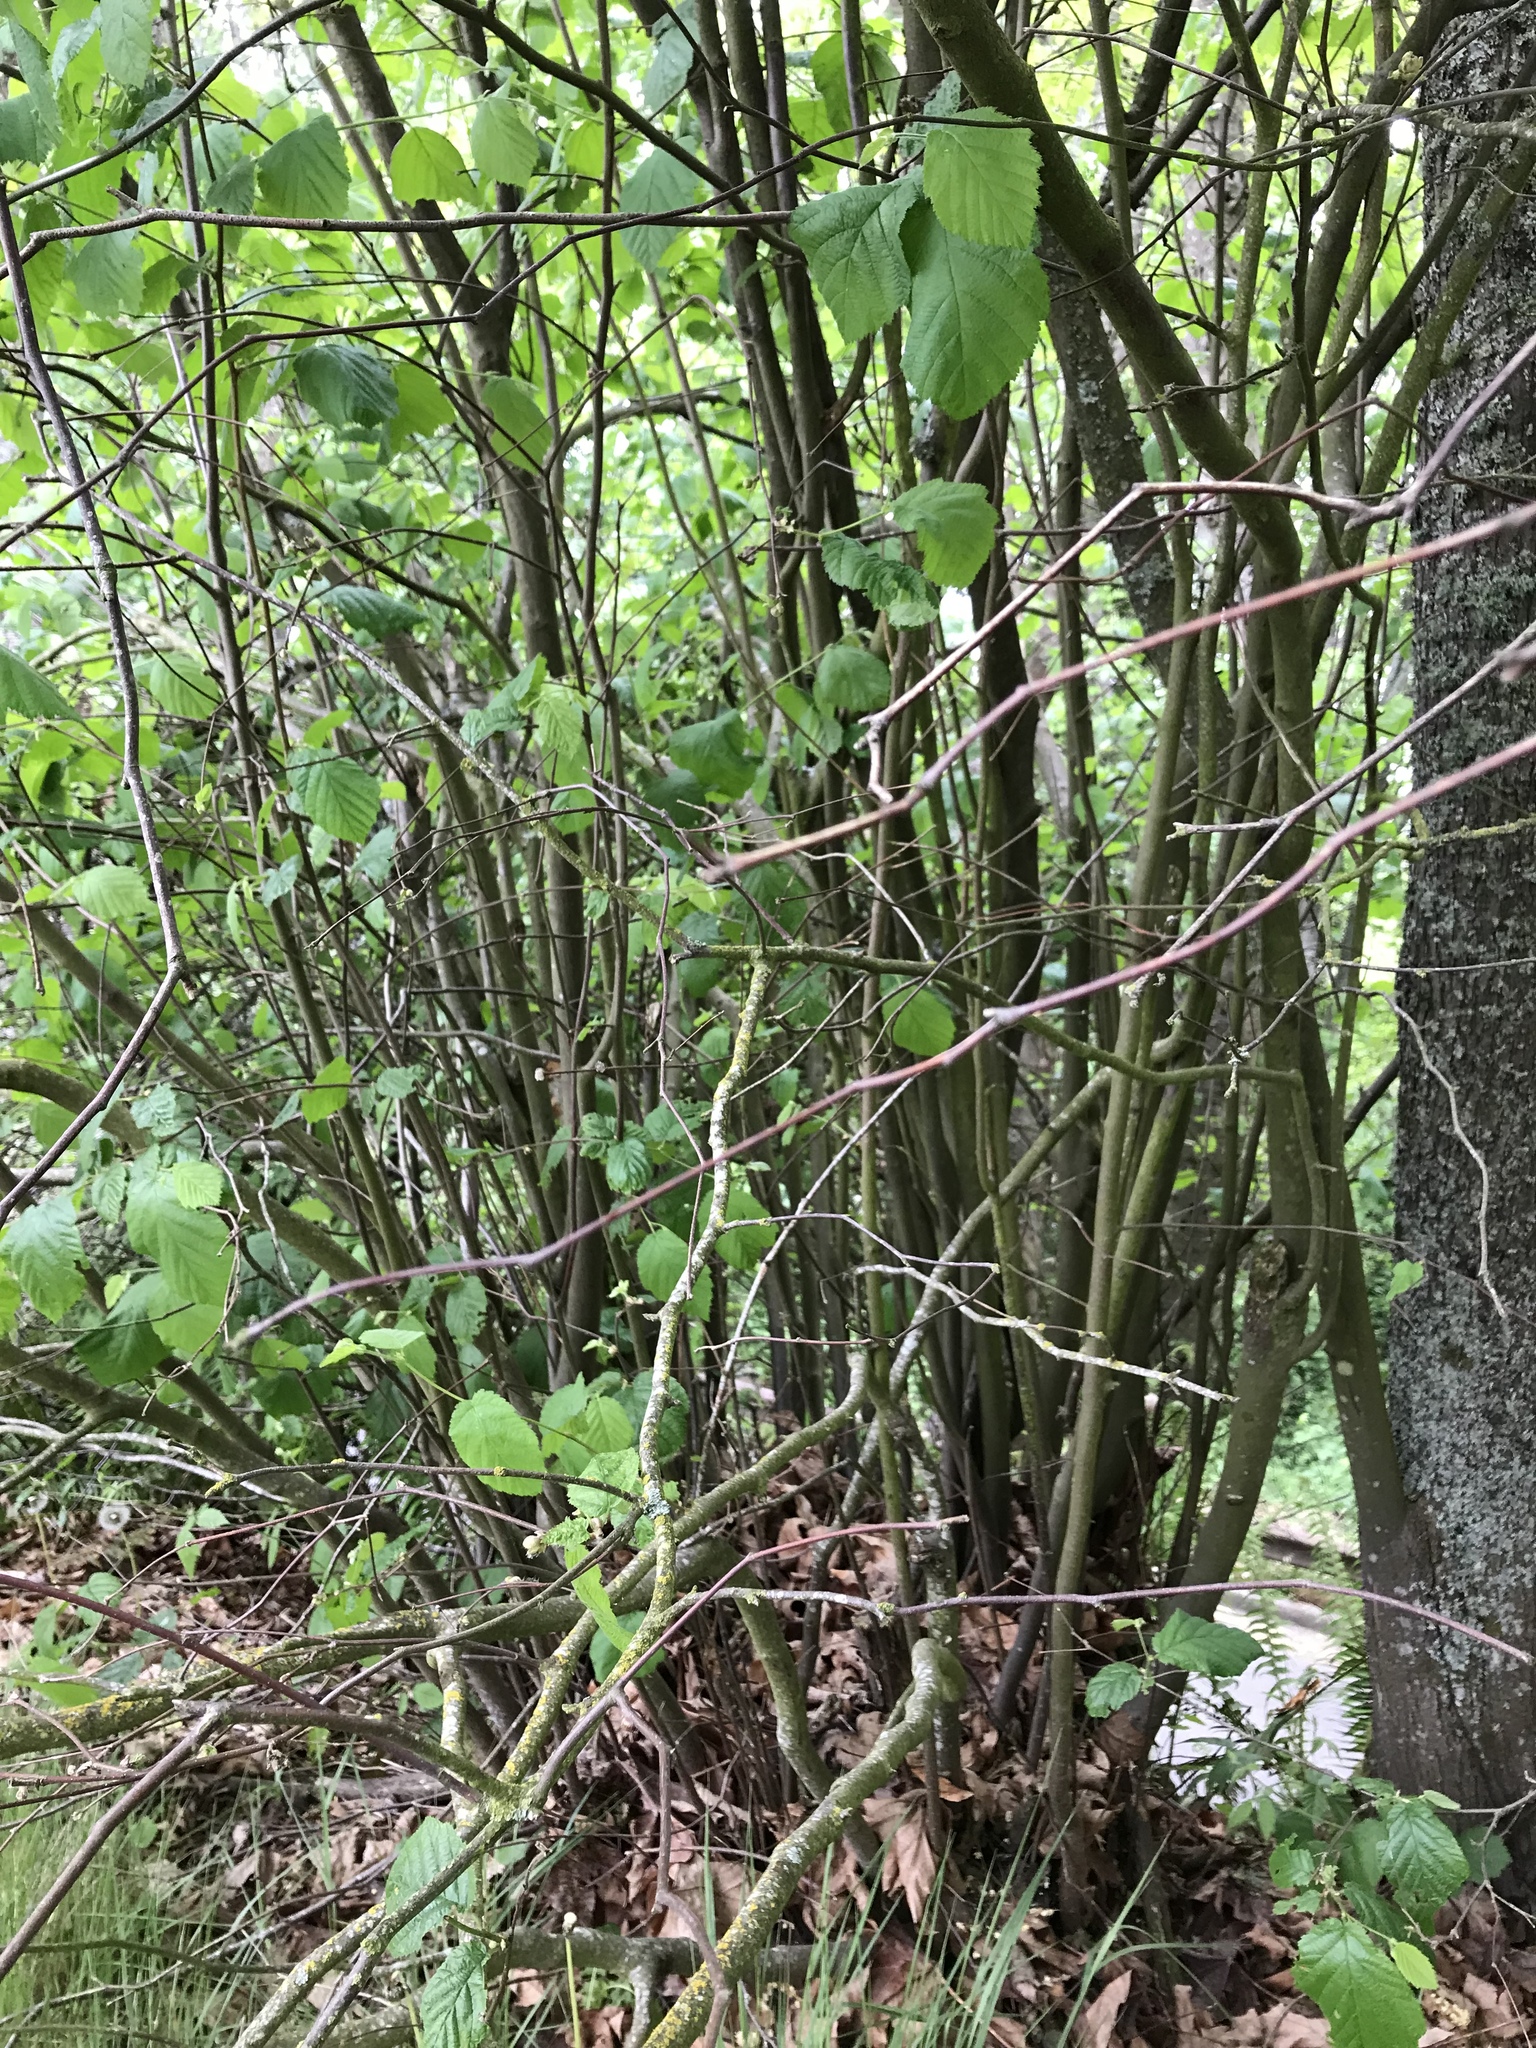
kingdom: Plantae
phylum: Tracheophyta
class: Magnoliopsida
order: Fagales
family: Betulaceae
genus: Corylus
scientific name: Corylus cornuta
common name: Beaked hazel
